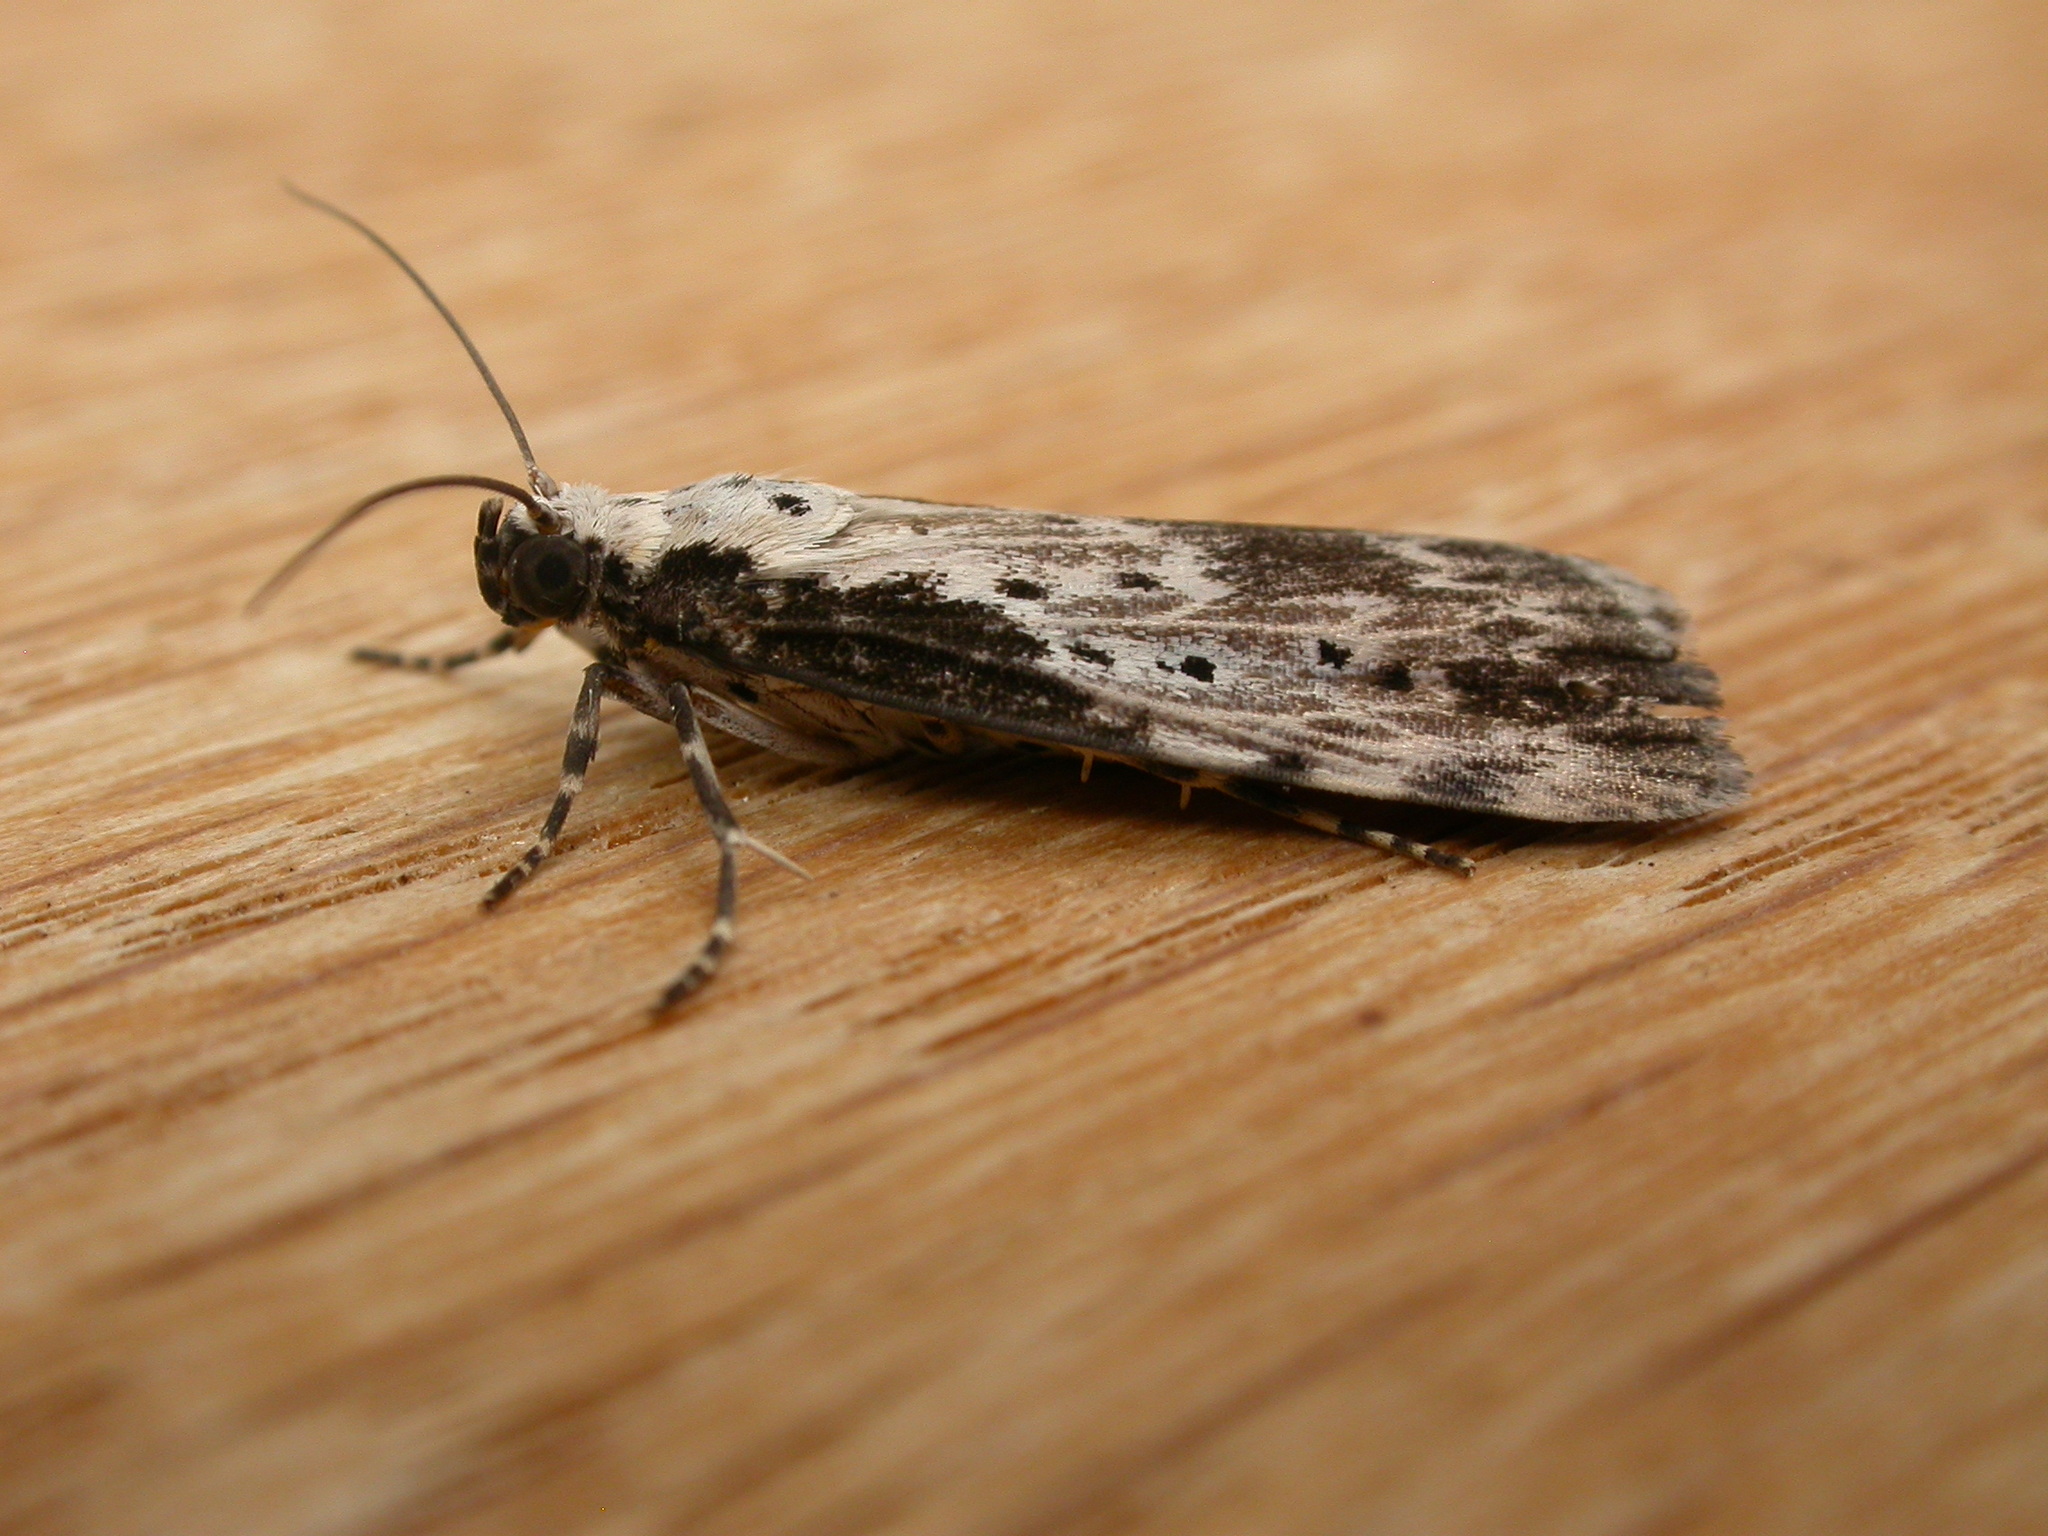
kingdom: Animalia
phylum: Arthropoda
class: Insecta
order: Lepidoptera
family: Erebidae
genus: Digama
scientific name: Digama Sommeria marmorea
